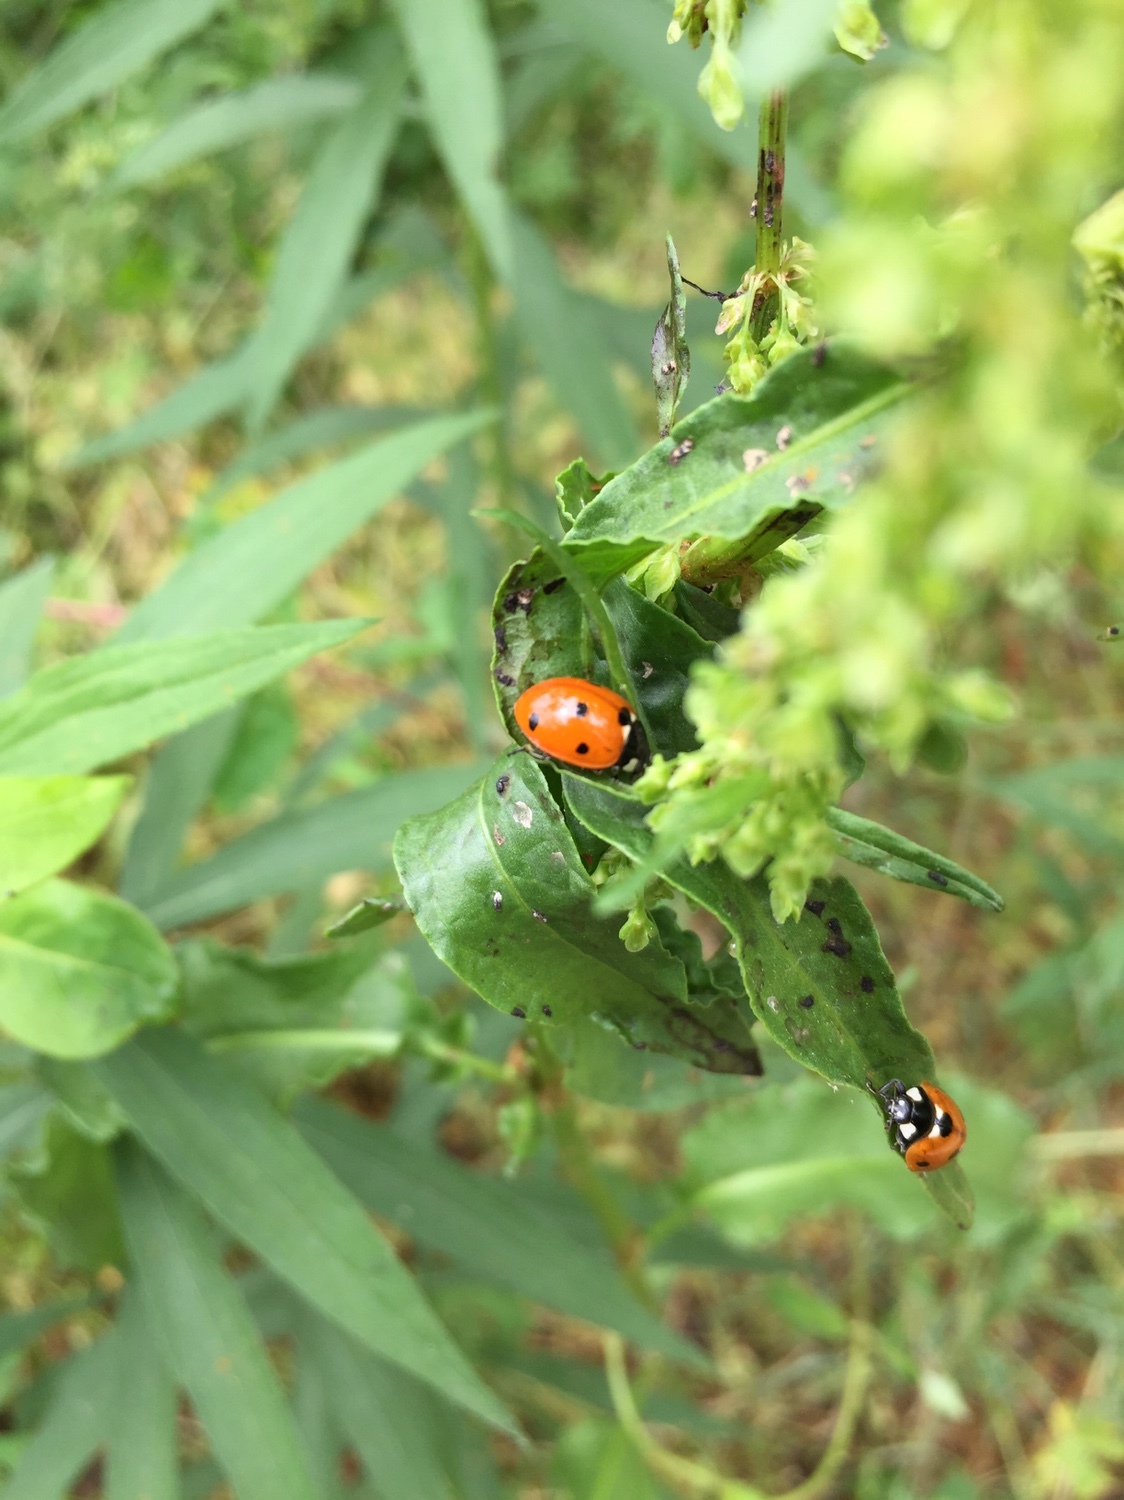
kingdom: Animalia
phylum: Arthropoda
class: Insecta
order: Coleoptera
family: Coccinellidae
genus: Coccinella
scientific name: Coccinella septempunctata
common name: Sevenspotted lady beetle
